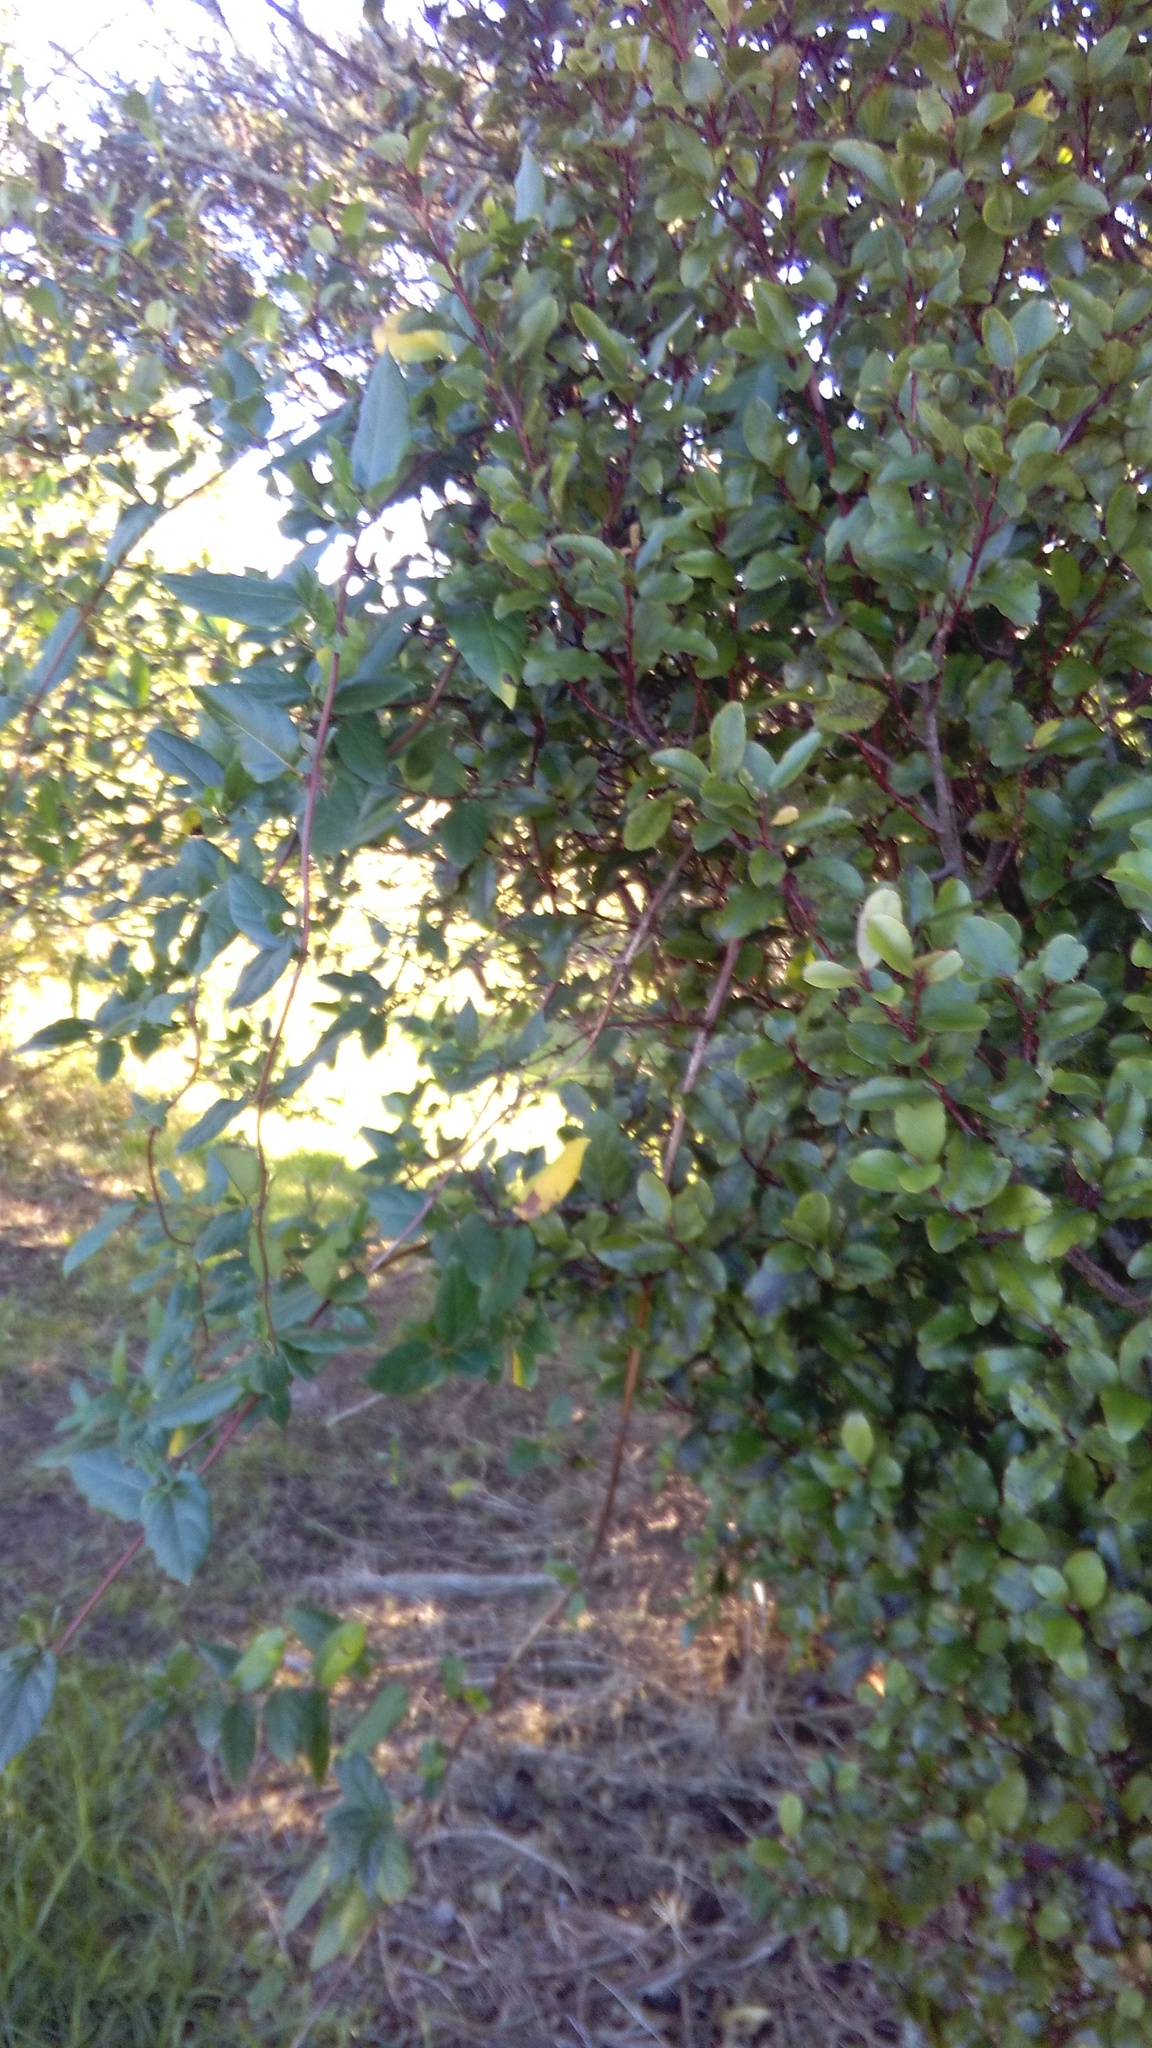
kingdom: Plantae
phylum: Tracheophyta
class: Magnoliopsida
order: Ericales
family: Primulaceae
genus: Myrsine
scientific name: Myrsine australis
